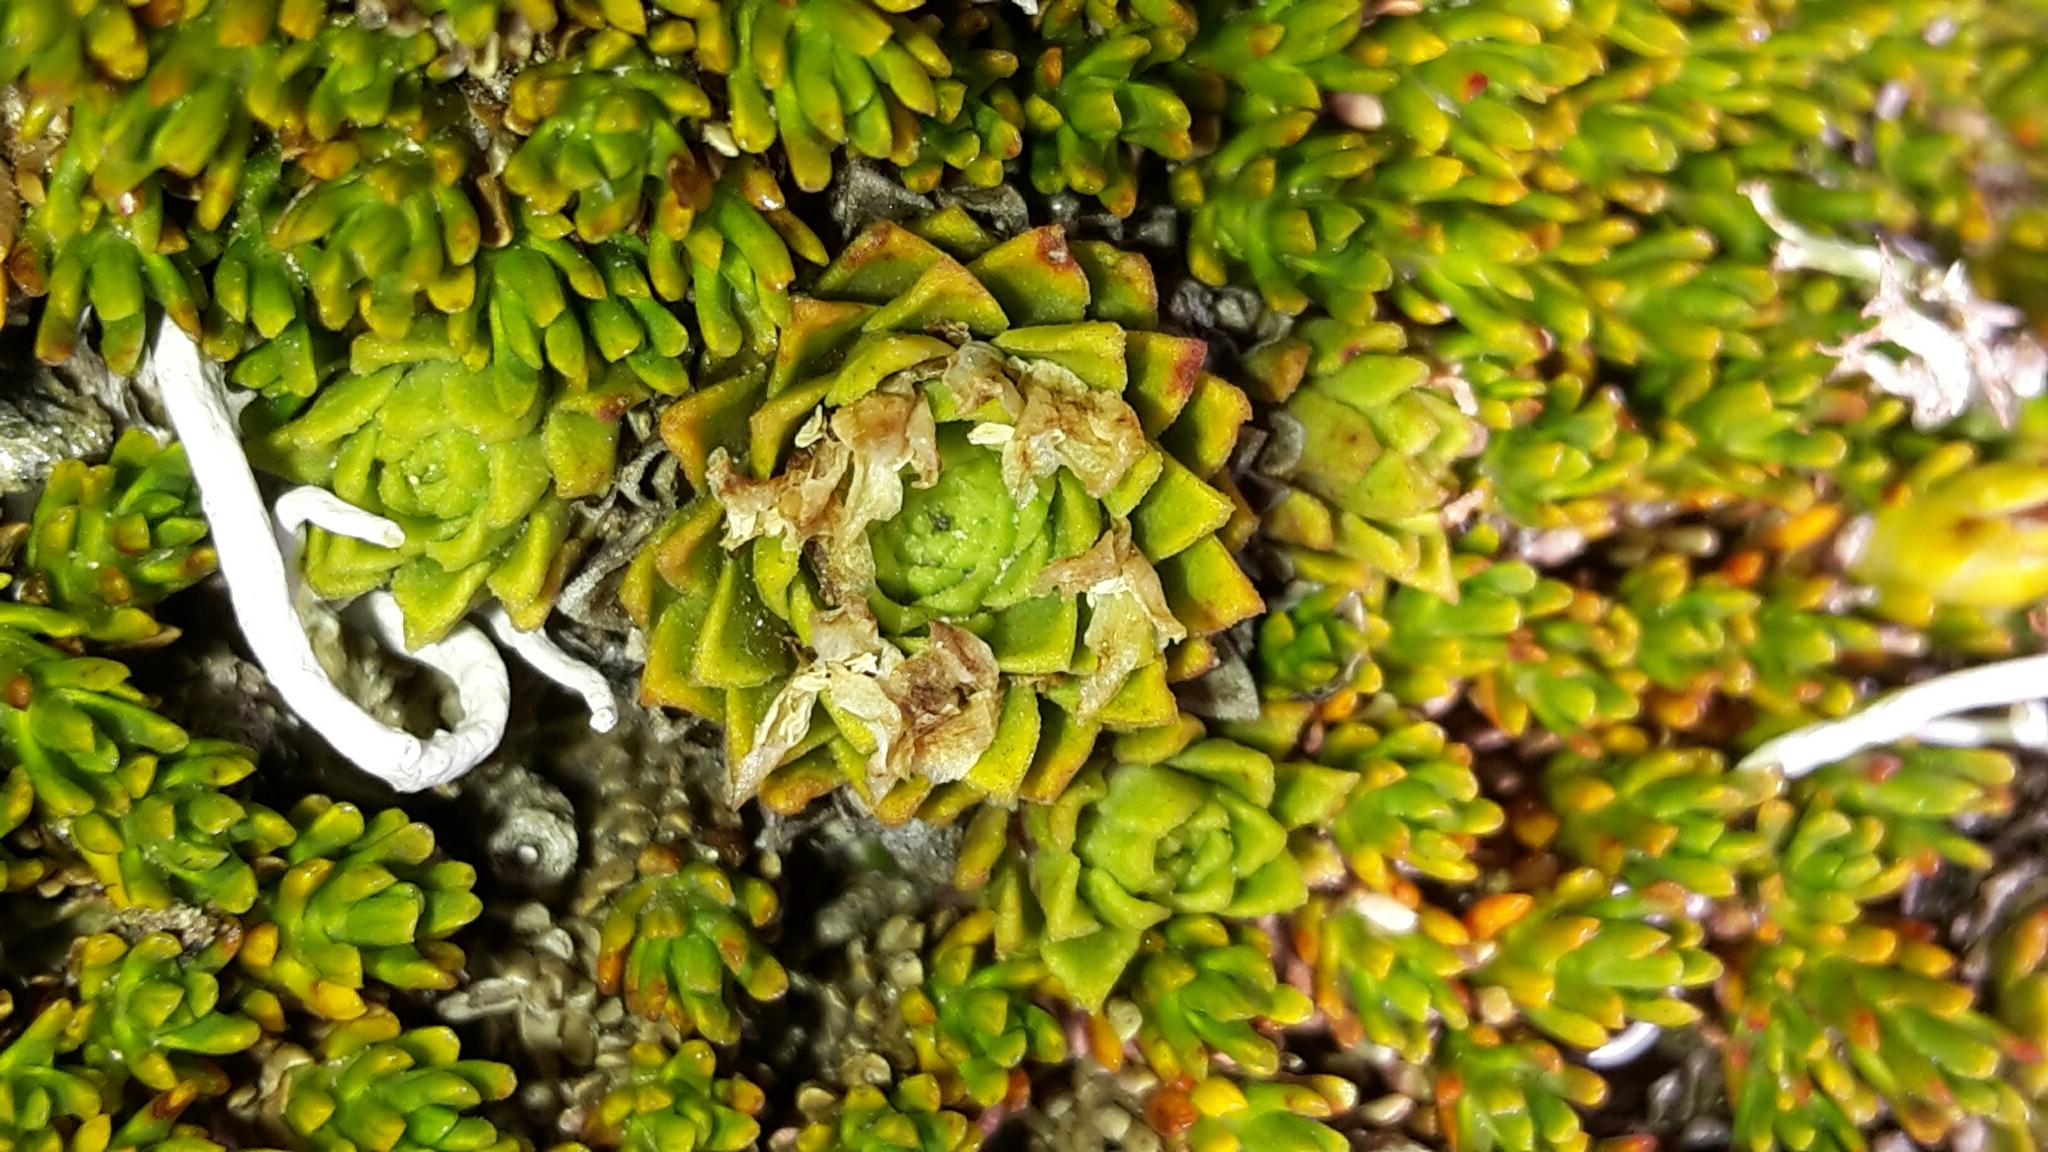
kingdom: Plantae
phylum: Tracheophyta
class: Magnoliopsida
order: Caryophyllales
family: Montiaceae
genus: Hectorella
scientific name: Hectorella caespitosa
